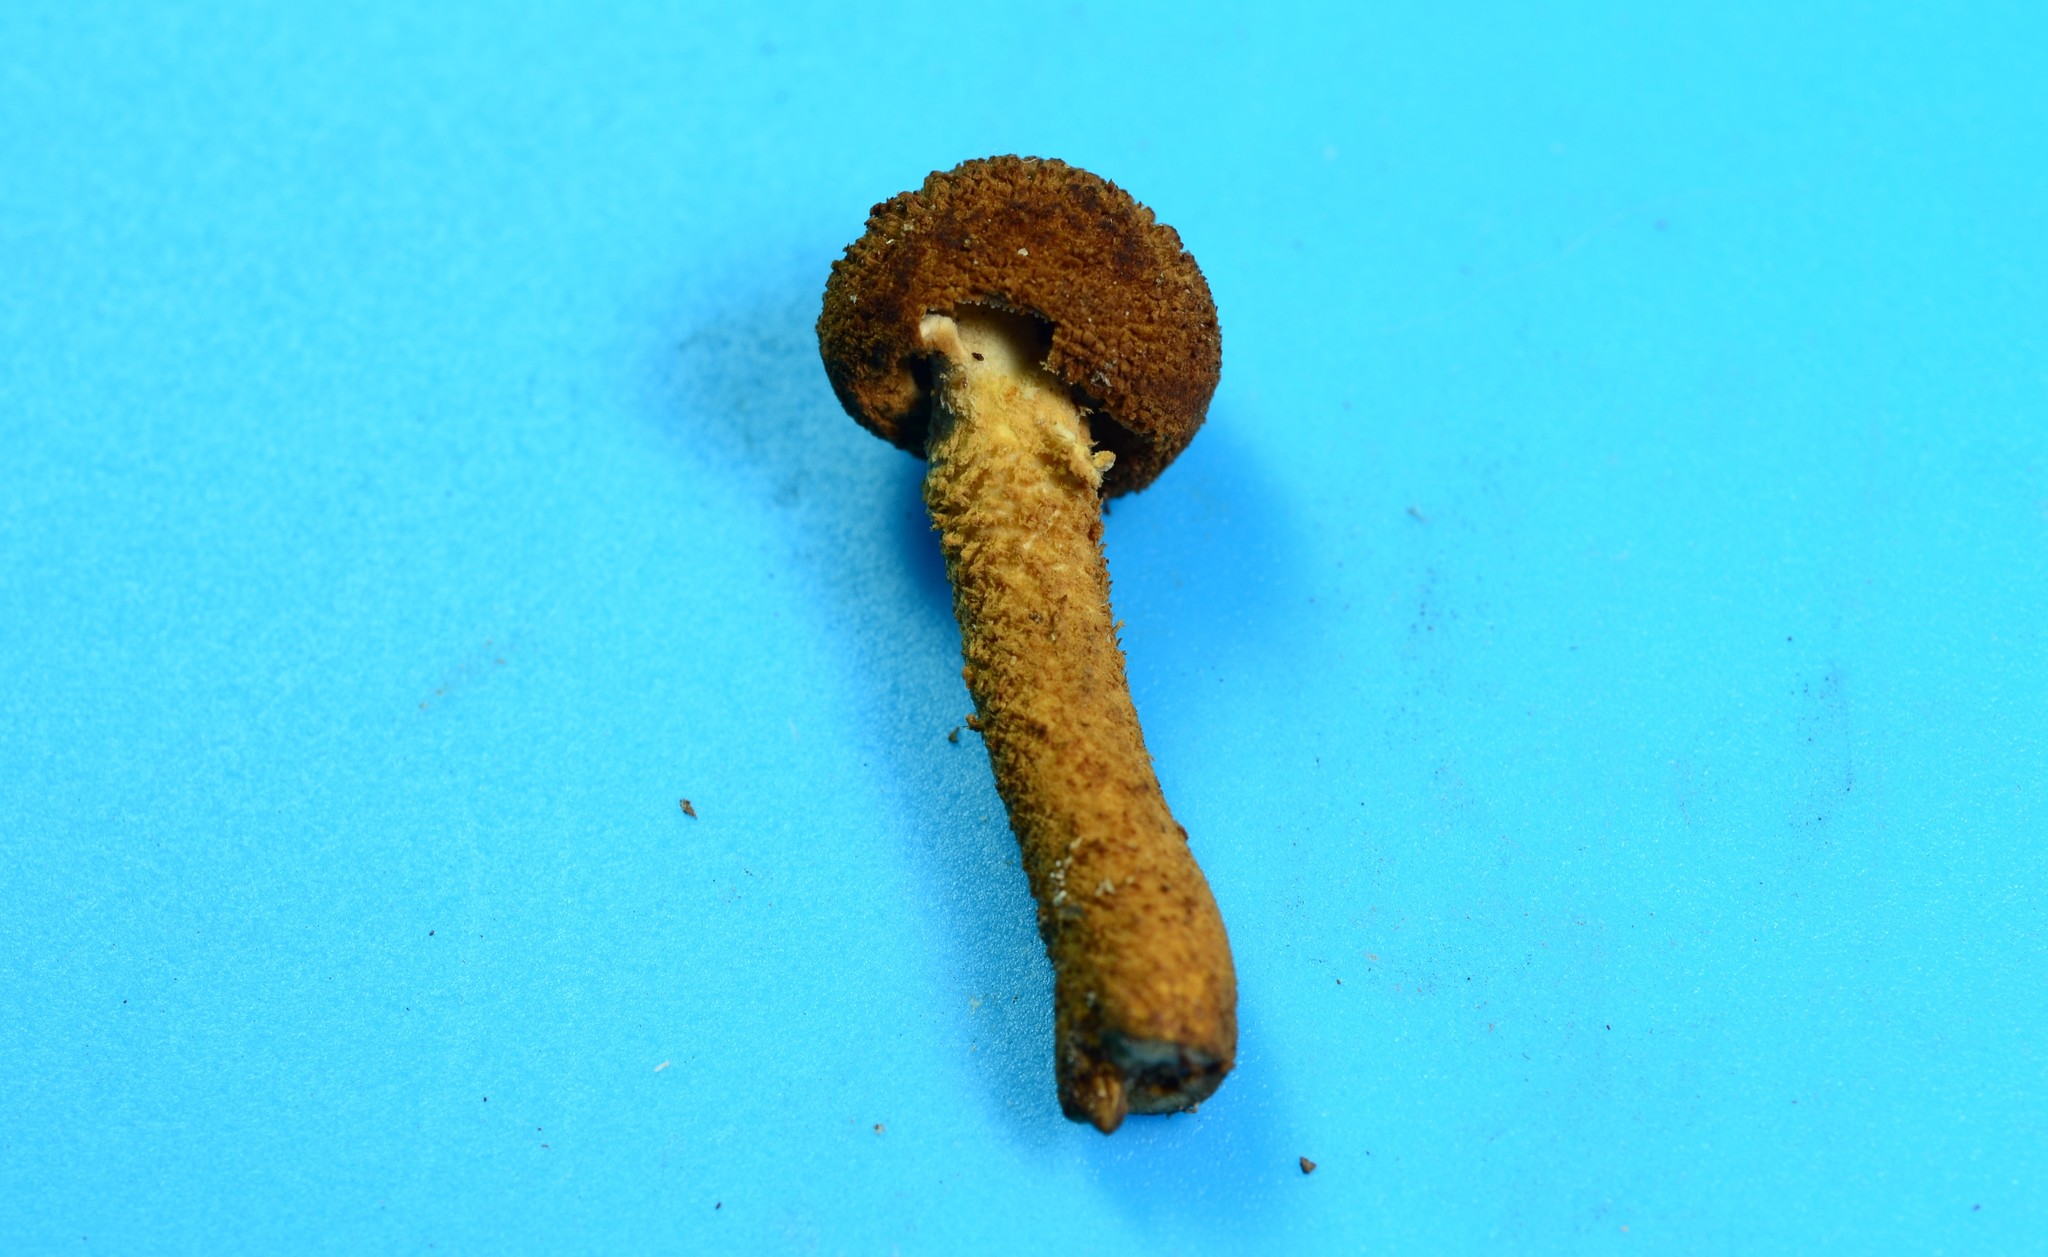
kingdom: Fungi
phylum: Basidiomycota
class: Agaricomycetes
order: Agaricales
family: Tubariaceae
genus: Flammulaster
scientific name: Flammulaster erinaceellus
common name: Powder-scale pholiota
